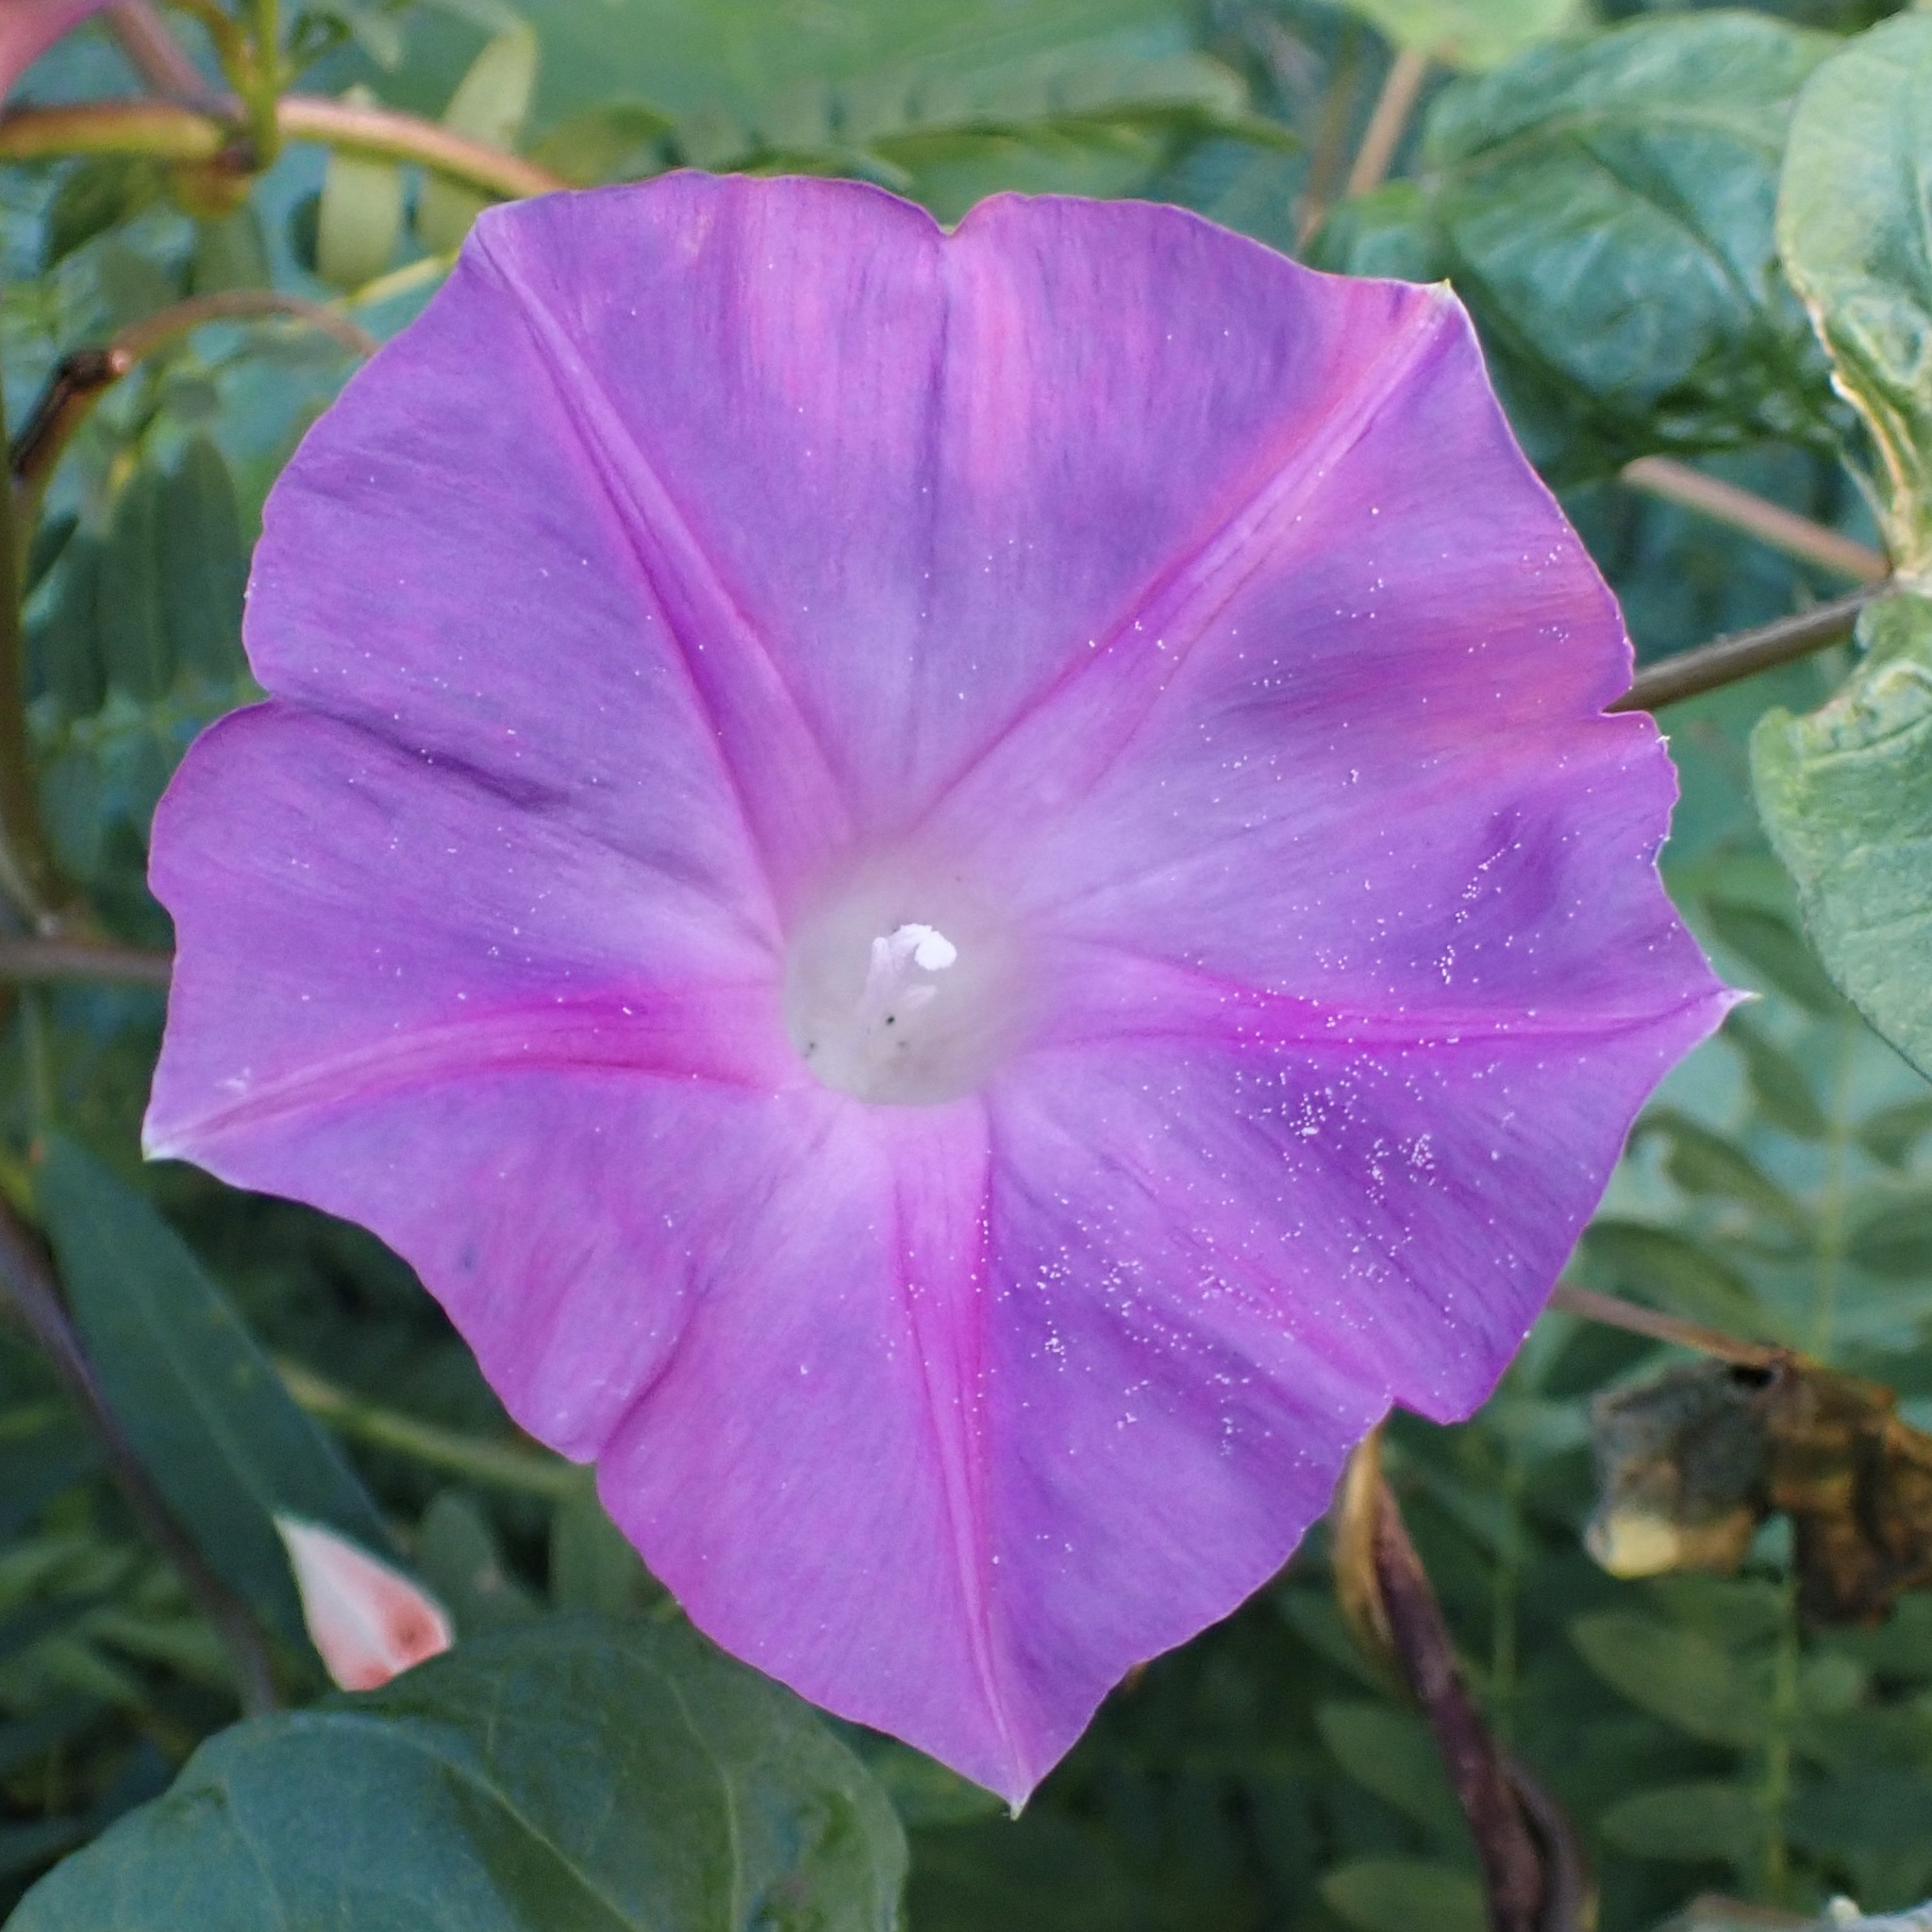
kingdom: Plantae
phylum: Tracheophyta
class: Magnoliopsida
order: Solanales
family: Convolvulaceae
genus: Ipomoea
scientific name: Ipomoea indica
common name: Blue dawnflower
